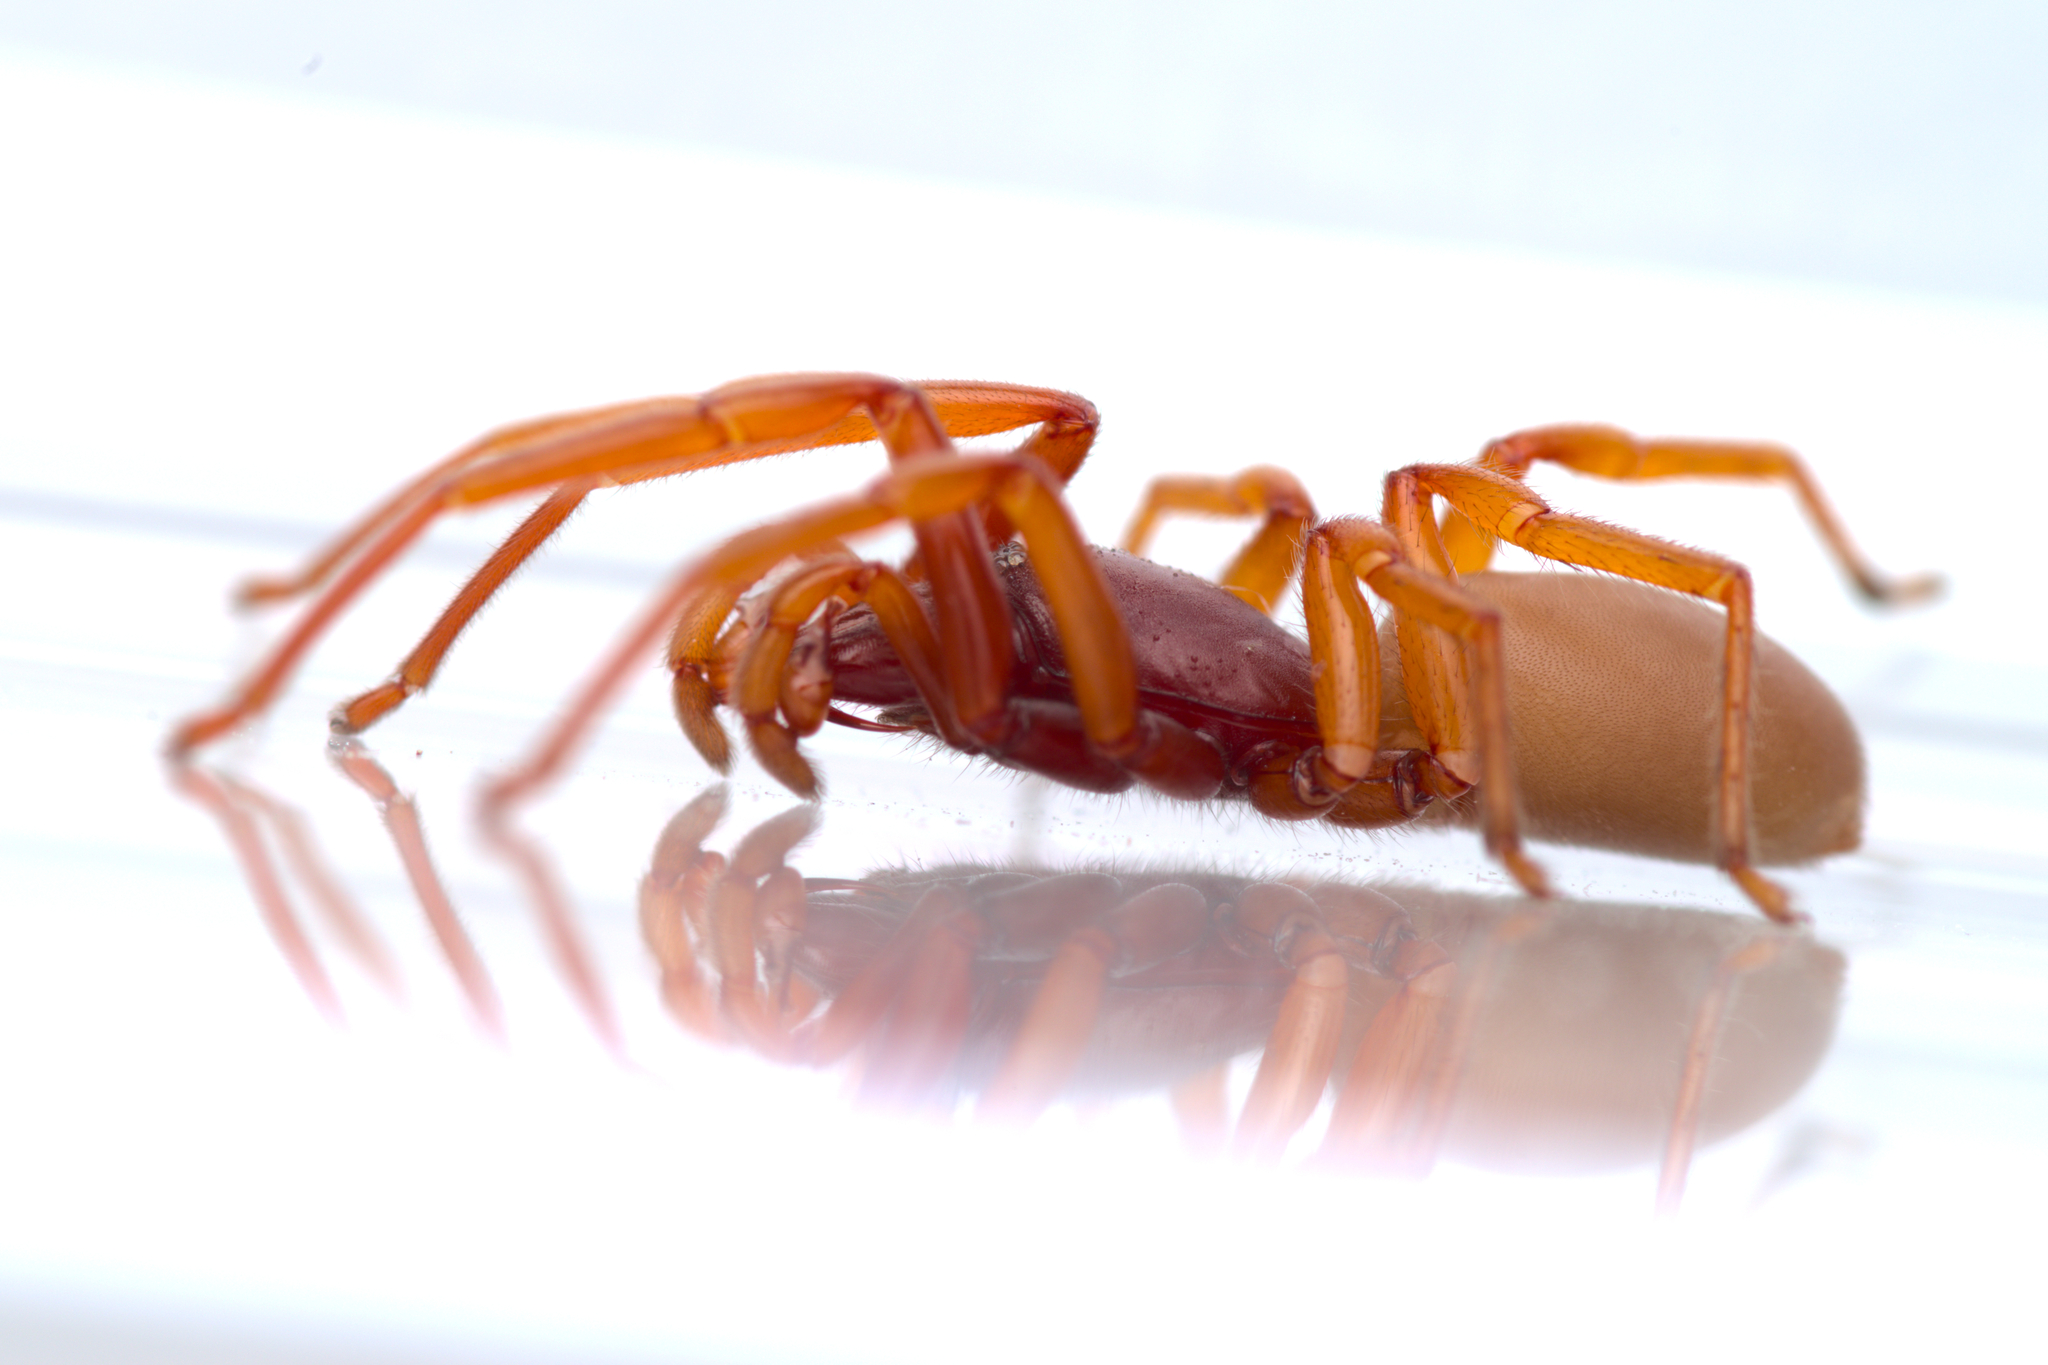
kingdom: Animalia
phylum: Arthropoda
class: Arachnida
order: Araneae
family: Dysderidae
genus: Dysdera
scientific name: Dysdera crocata
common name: Woodlouse spider
